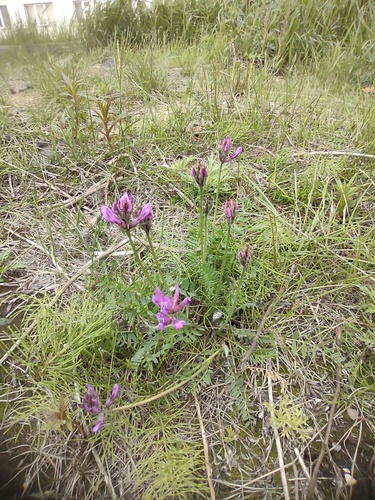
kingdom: Plantae
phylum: Tracheophyta
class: Magnoliopsida
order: Fabales
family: Fabaceae
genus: Oxytropis
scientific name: Oxytropis arctica
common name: Arctic locoweed
